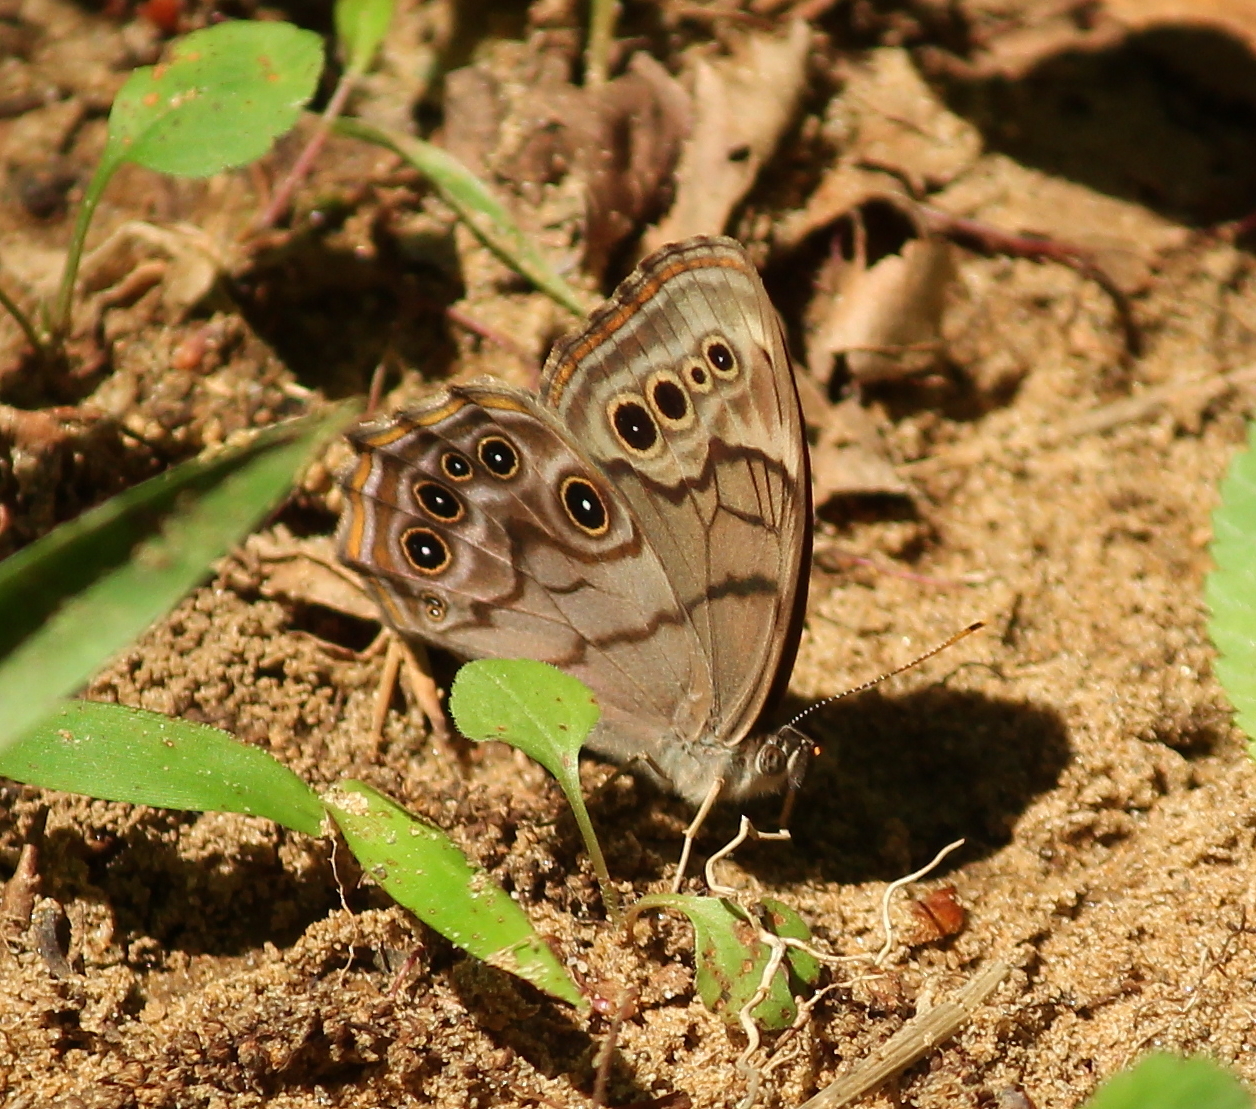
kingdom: Animalia
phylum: Arthropoda
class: Insecta
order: Lepidoptera
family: Nymphalidae
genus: Lethe
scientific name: Lethe anthedon
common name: Northern pearly-eye
